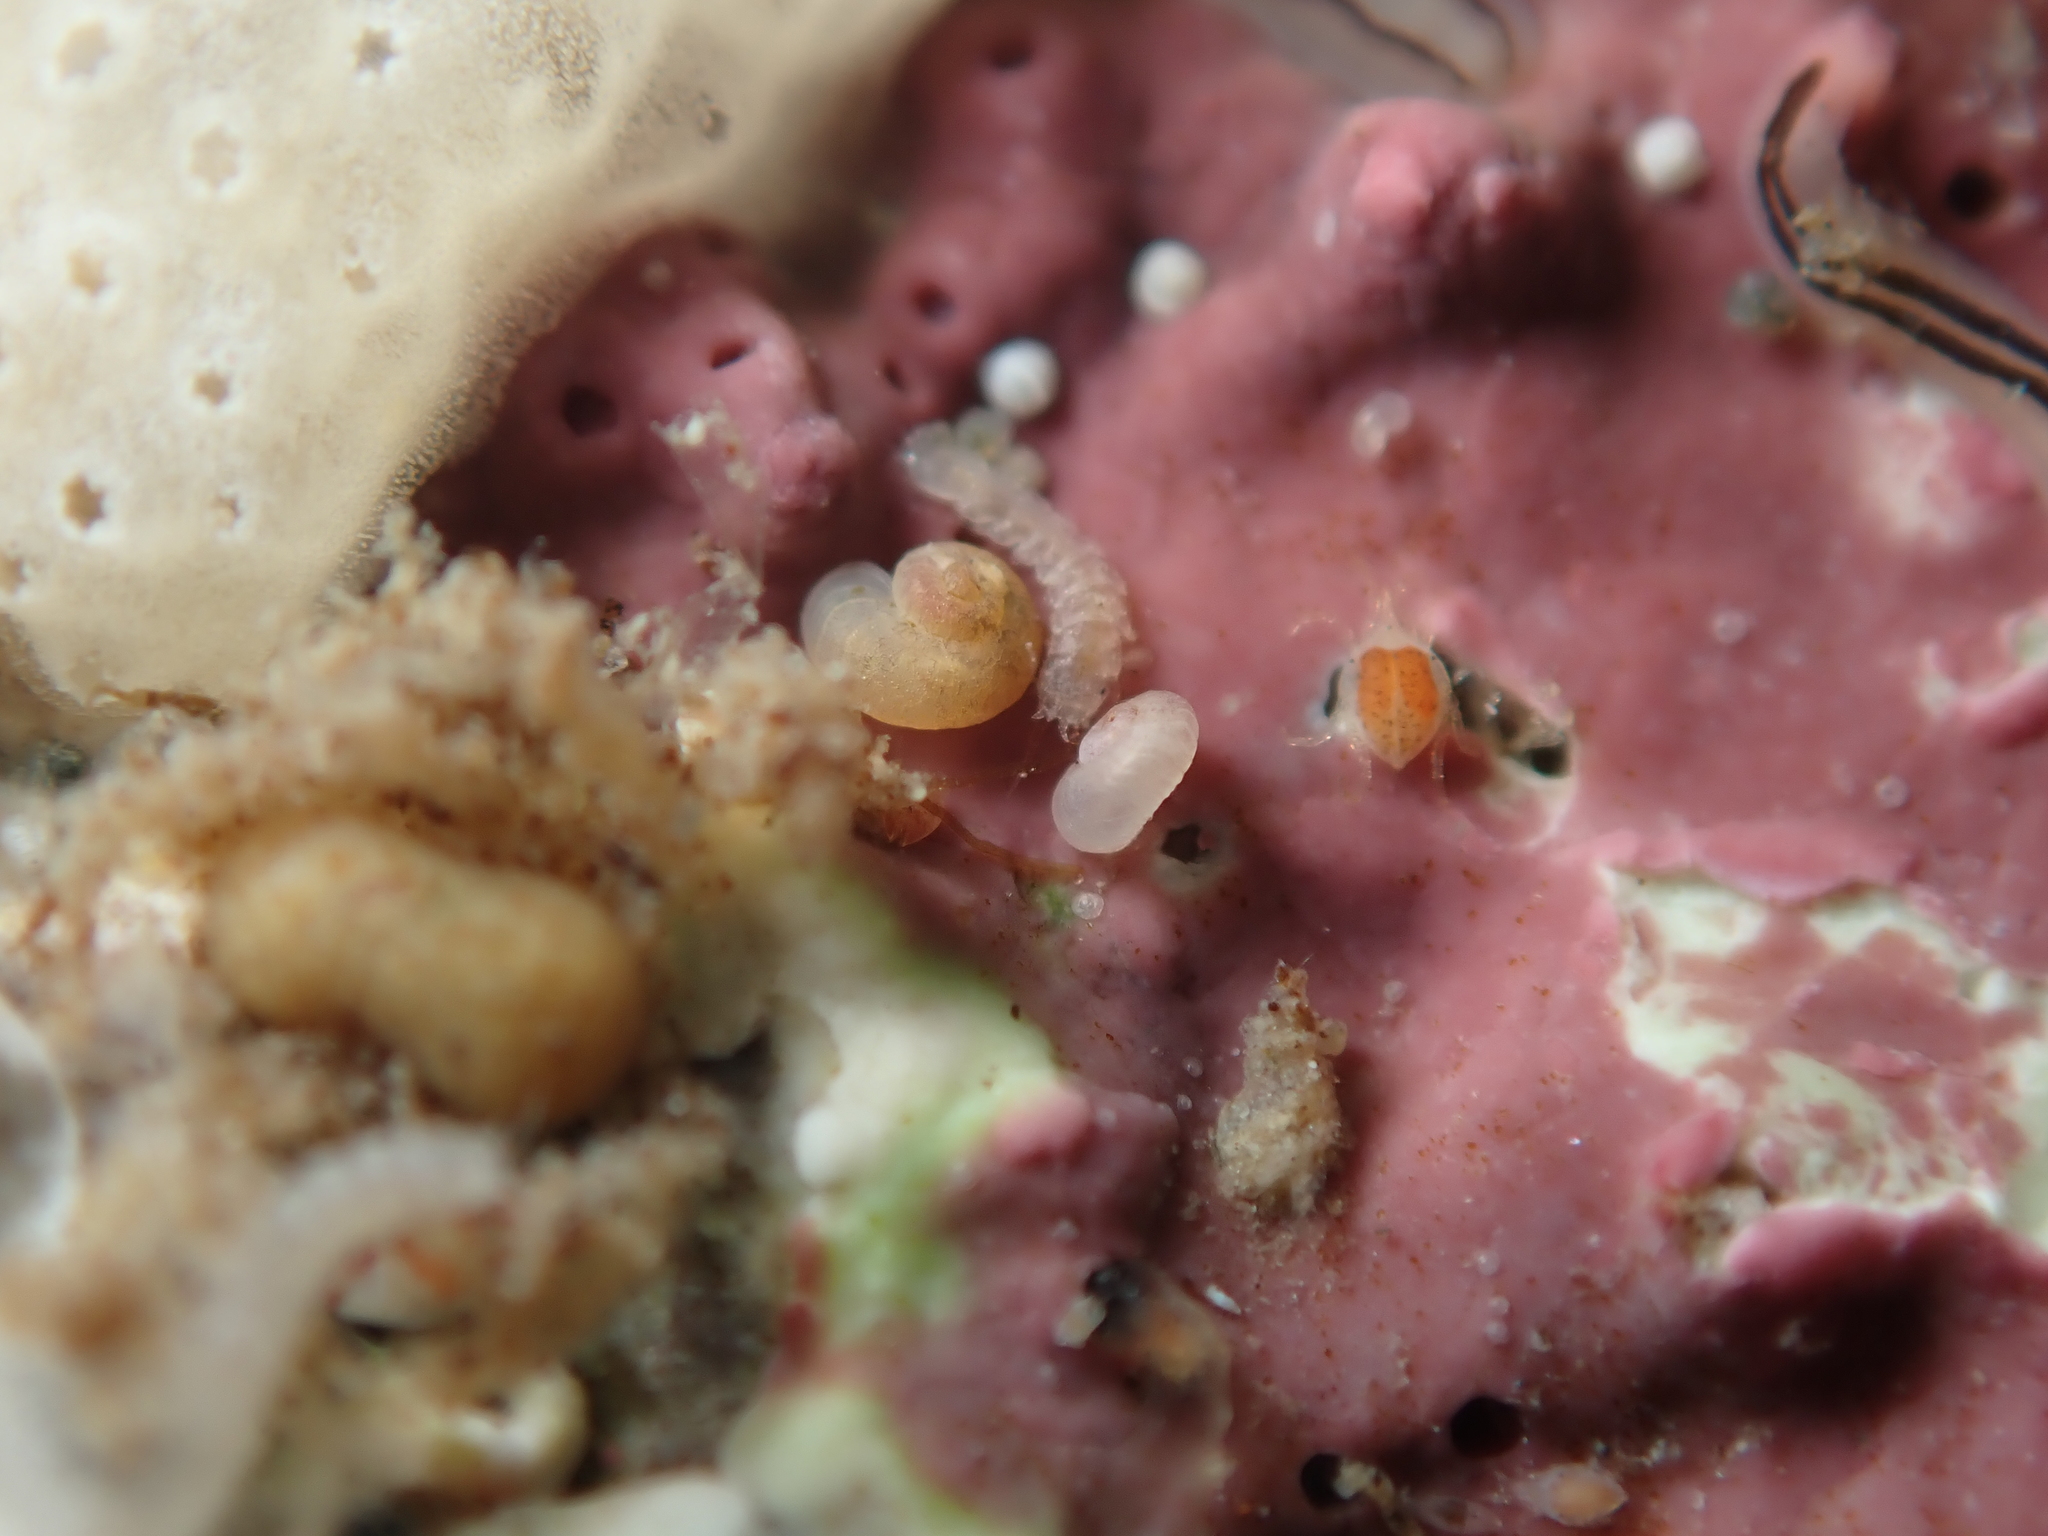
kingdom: Animalia
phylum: Mollusca
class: Gastropoda
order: Trochida
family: Skeneidae
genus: Zalipais
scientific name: Zalipais lissa
